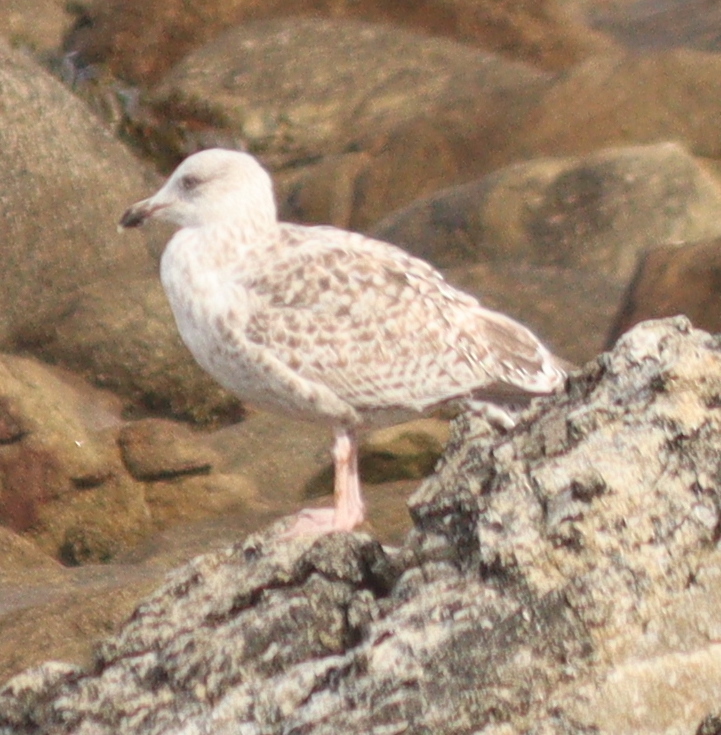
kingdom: Animalia
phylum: Chordata
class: Aves
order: Charadriiformes
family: Laridae
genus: Larus
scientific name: Larus argentatus
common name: Herring gull
